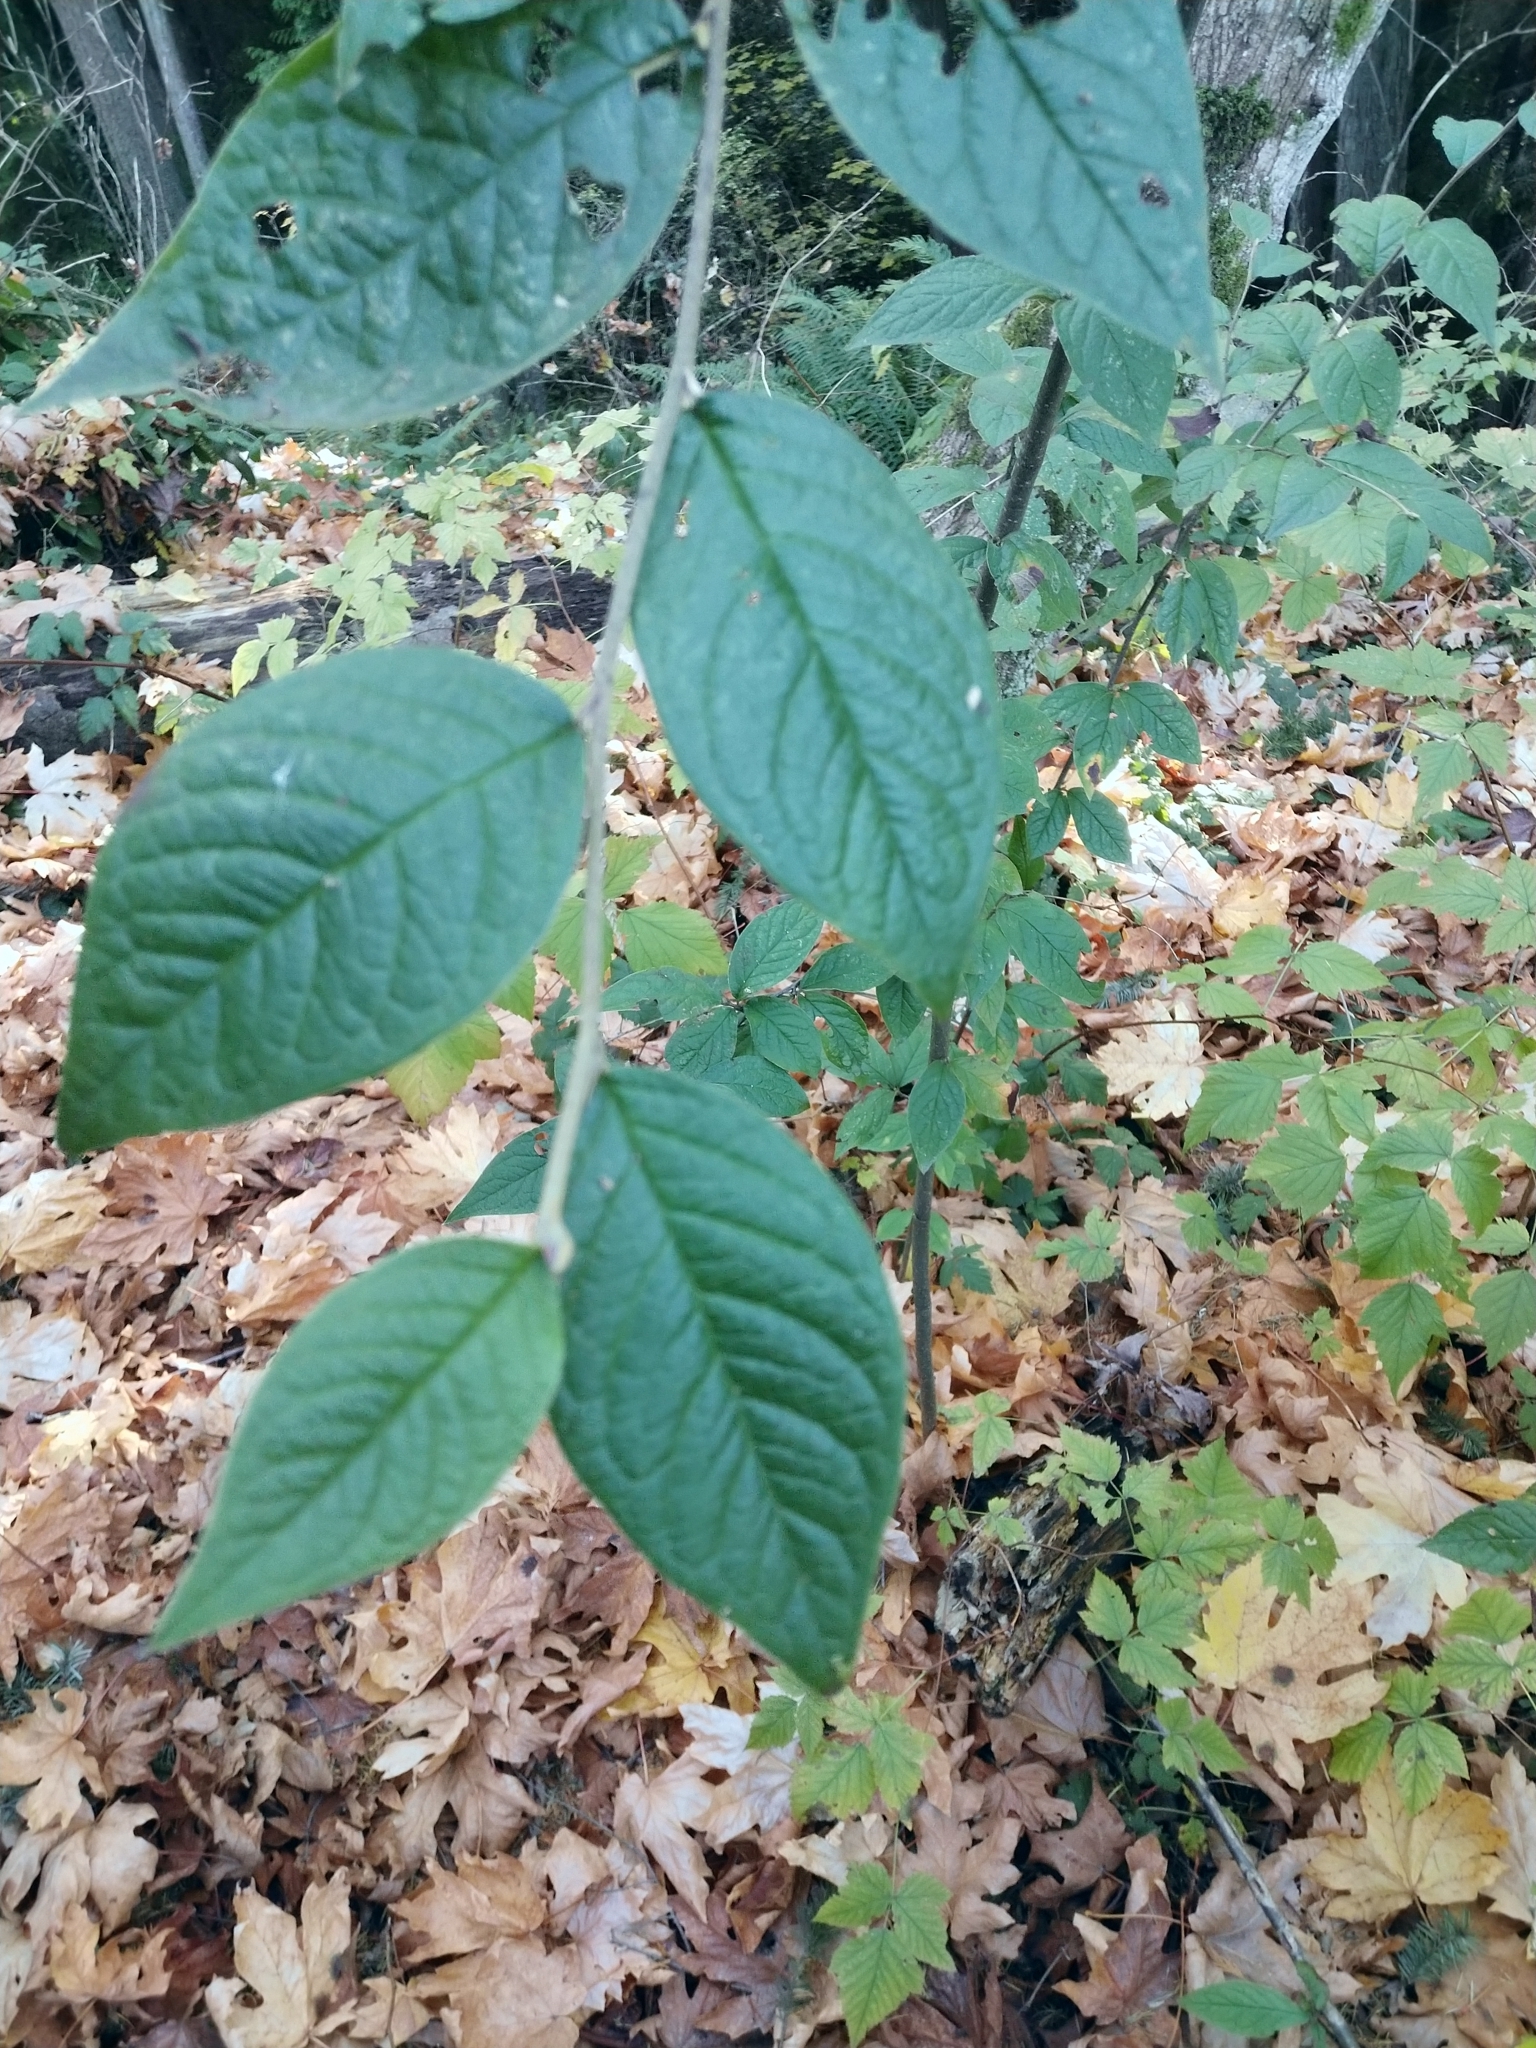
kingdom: Plantae
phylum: Tracheophyta
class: Magnoliopsida
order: Rosales
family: Rosaceae
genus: Cotoneaster
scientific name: Cotoneaster bullatus
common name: Hollyberry cotoneaster
